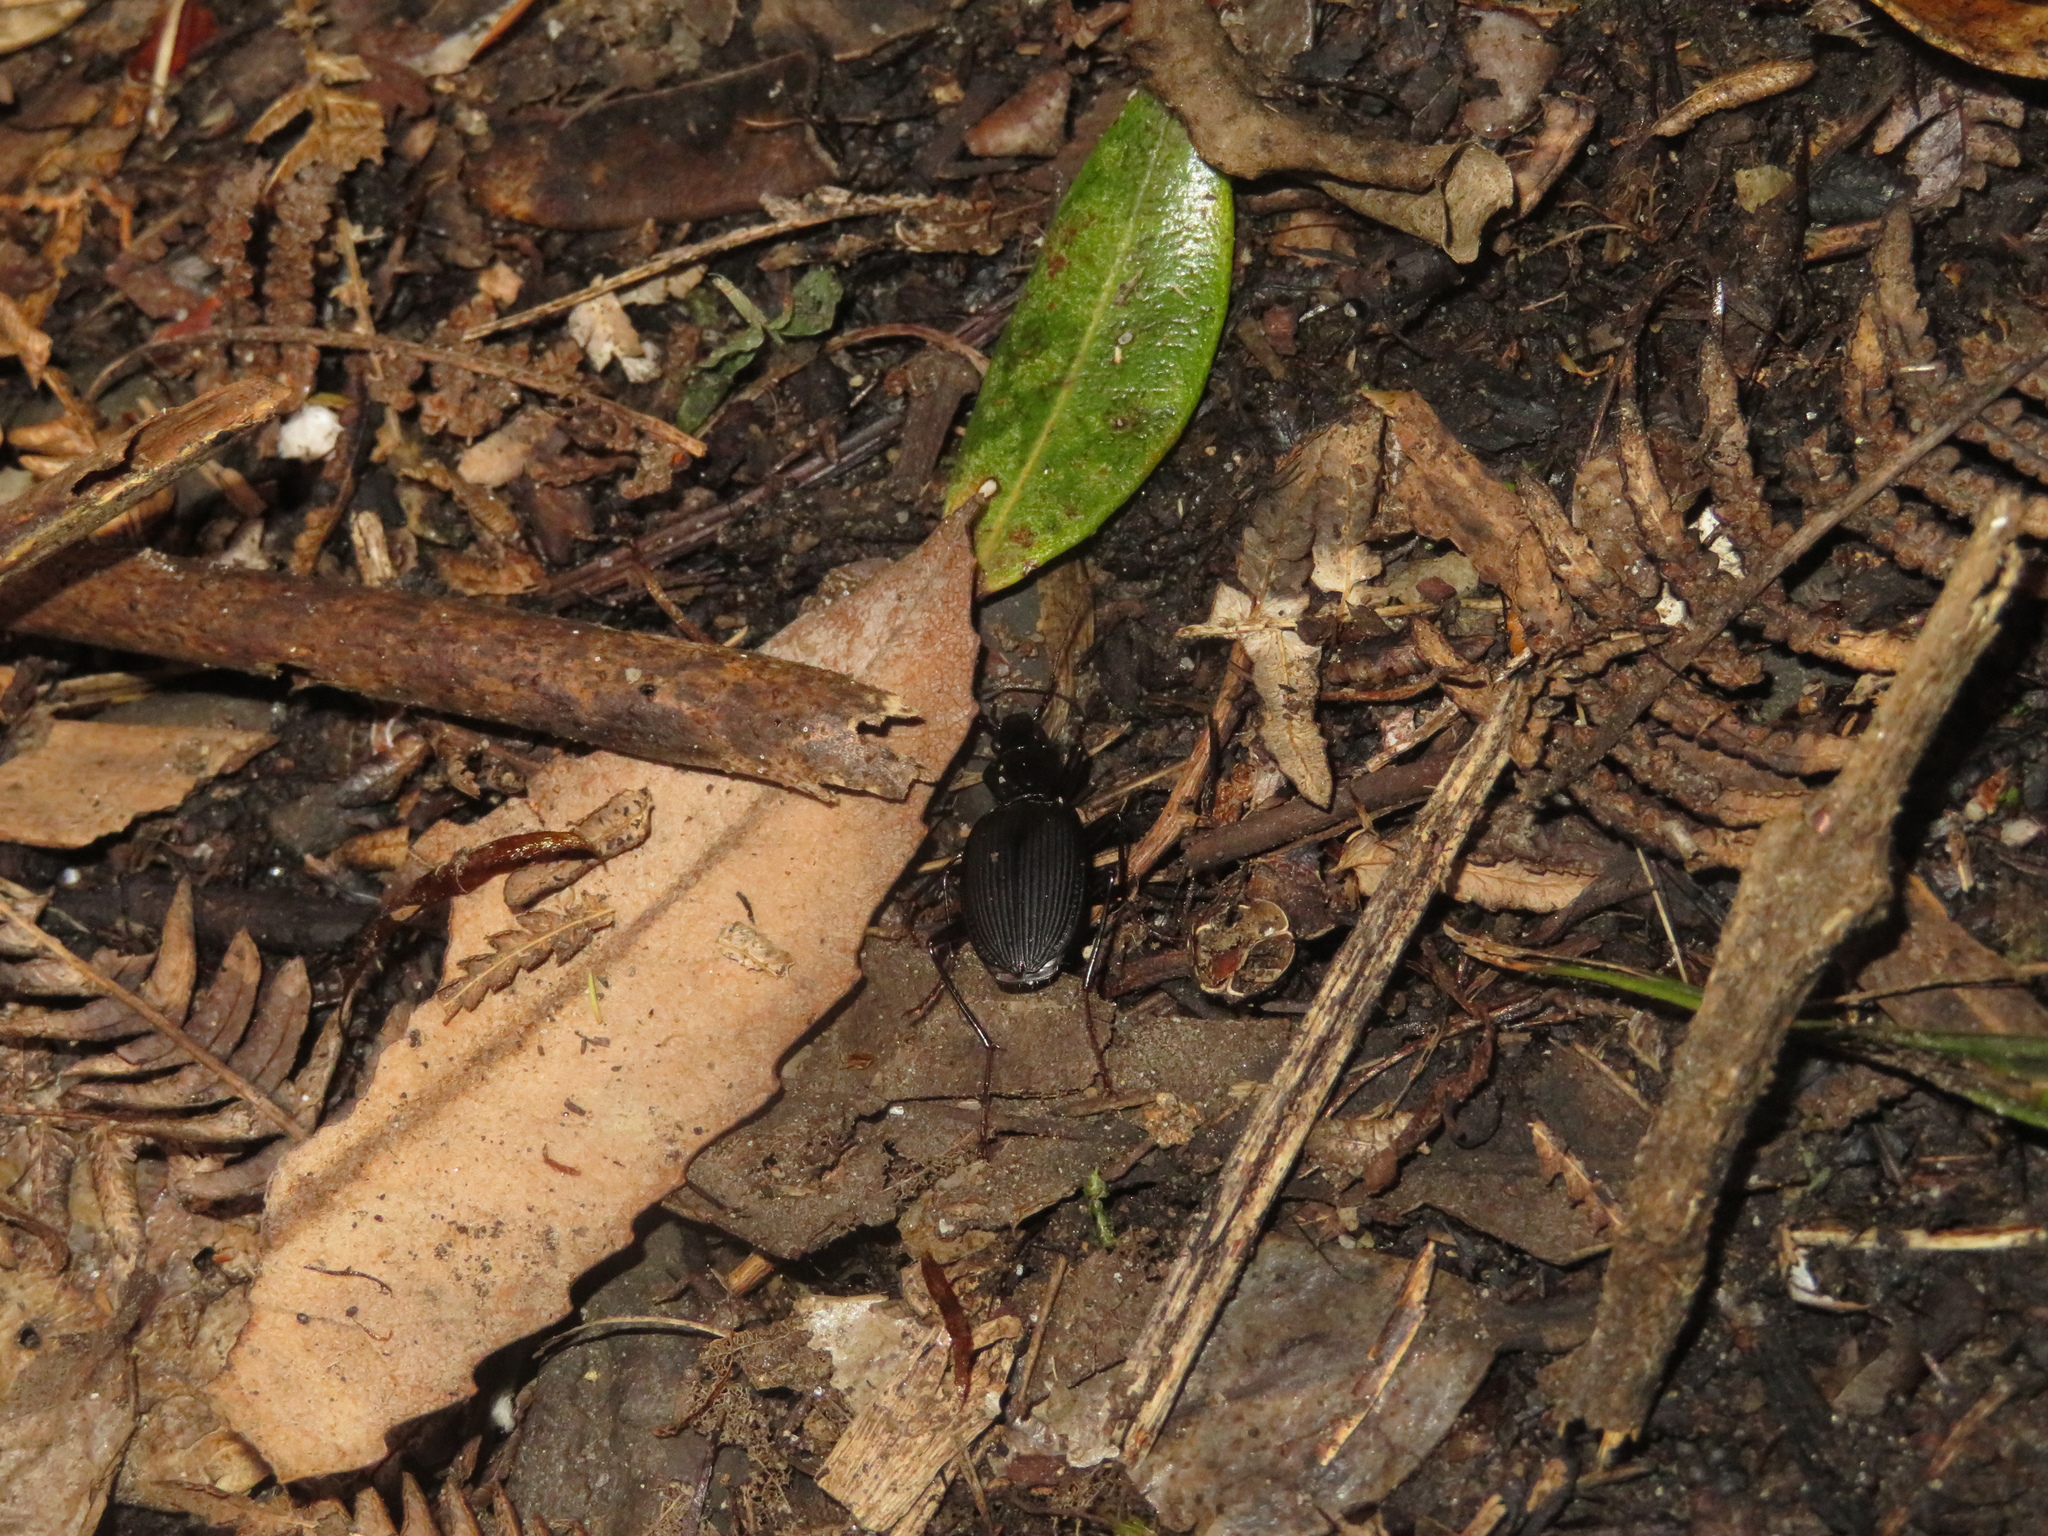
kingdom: Animalia
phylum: Arthropoda
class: Insecta
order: Coleoptera
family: Carabidae
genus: Ctenognathus
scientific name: Ctenognathus novaezelandiae
